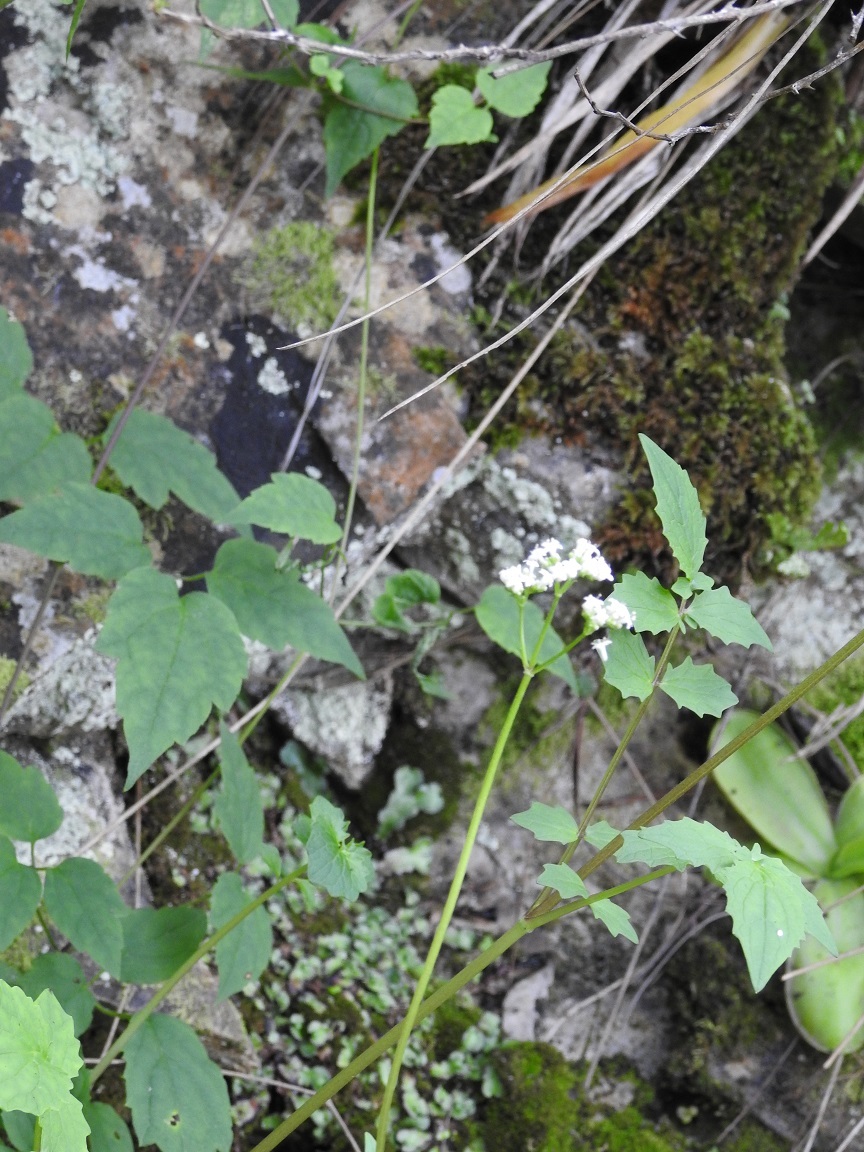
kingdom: Plantae
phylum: Tracheophyta
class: Magnoliopsida
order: Dipsacales
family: Caprifoliaceae
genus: Valeriana
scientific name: Valeriana deltoidea
